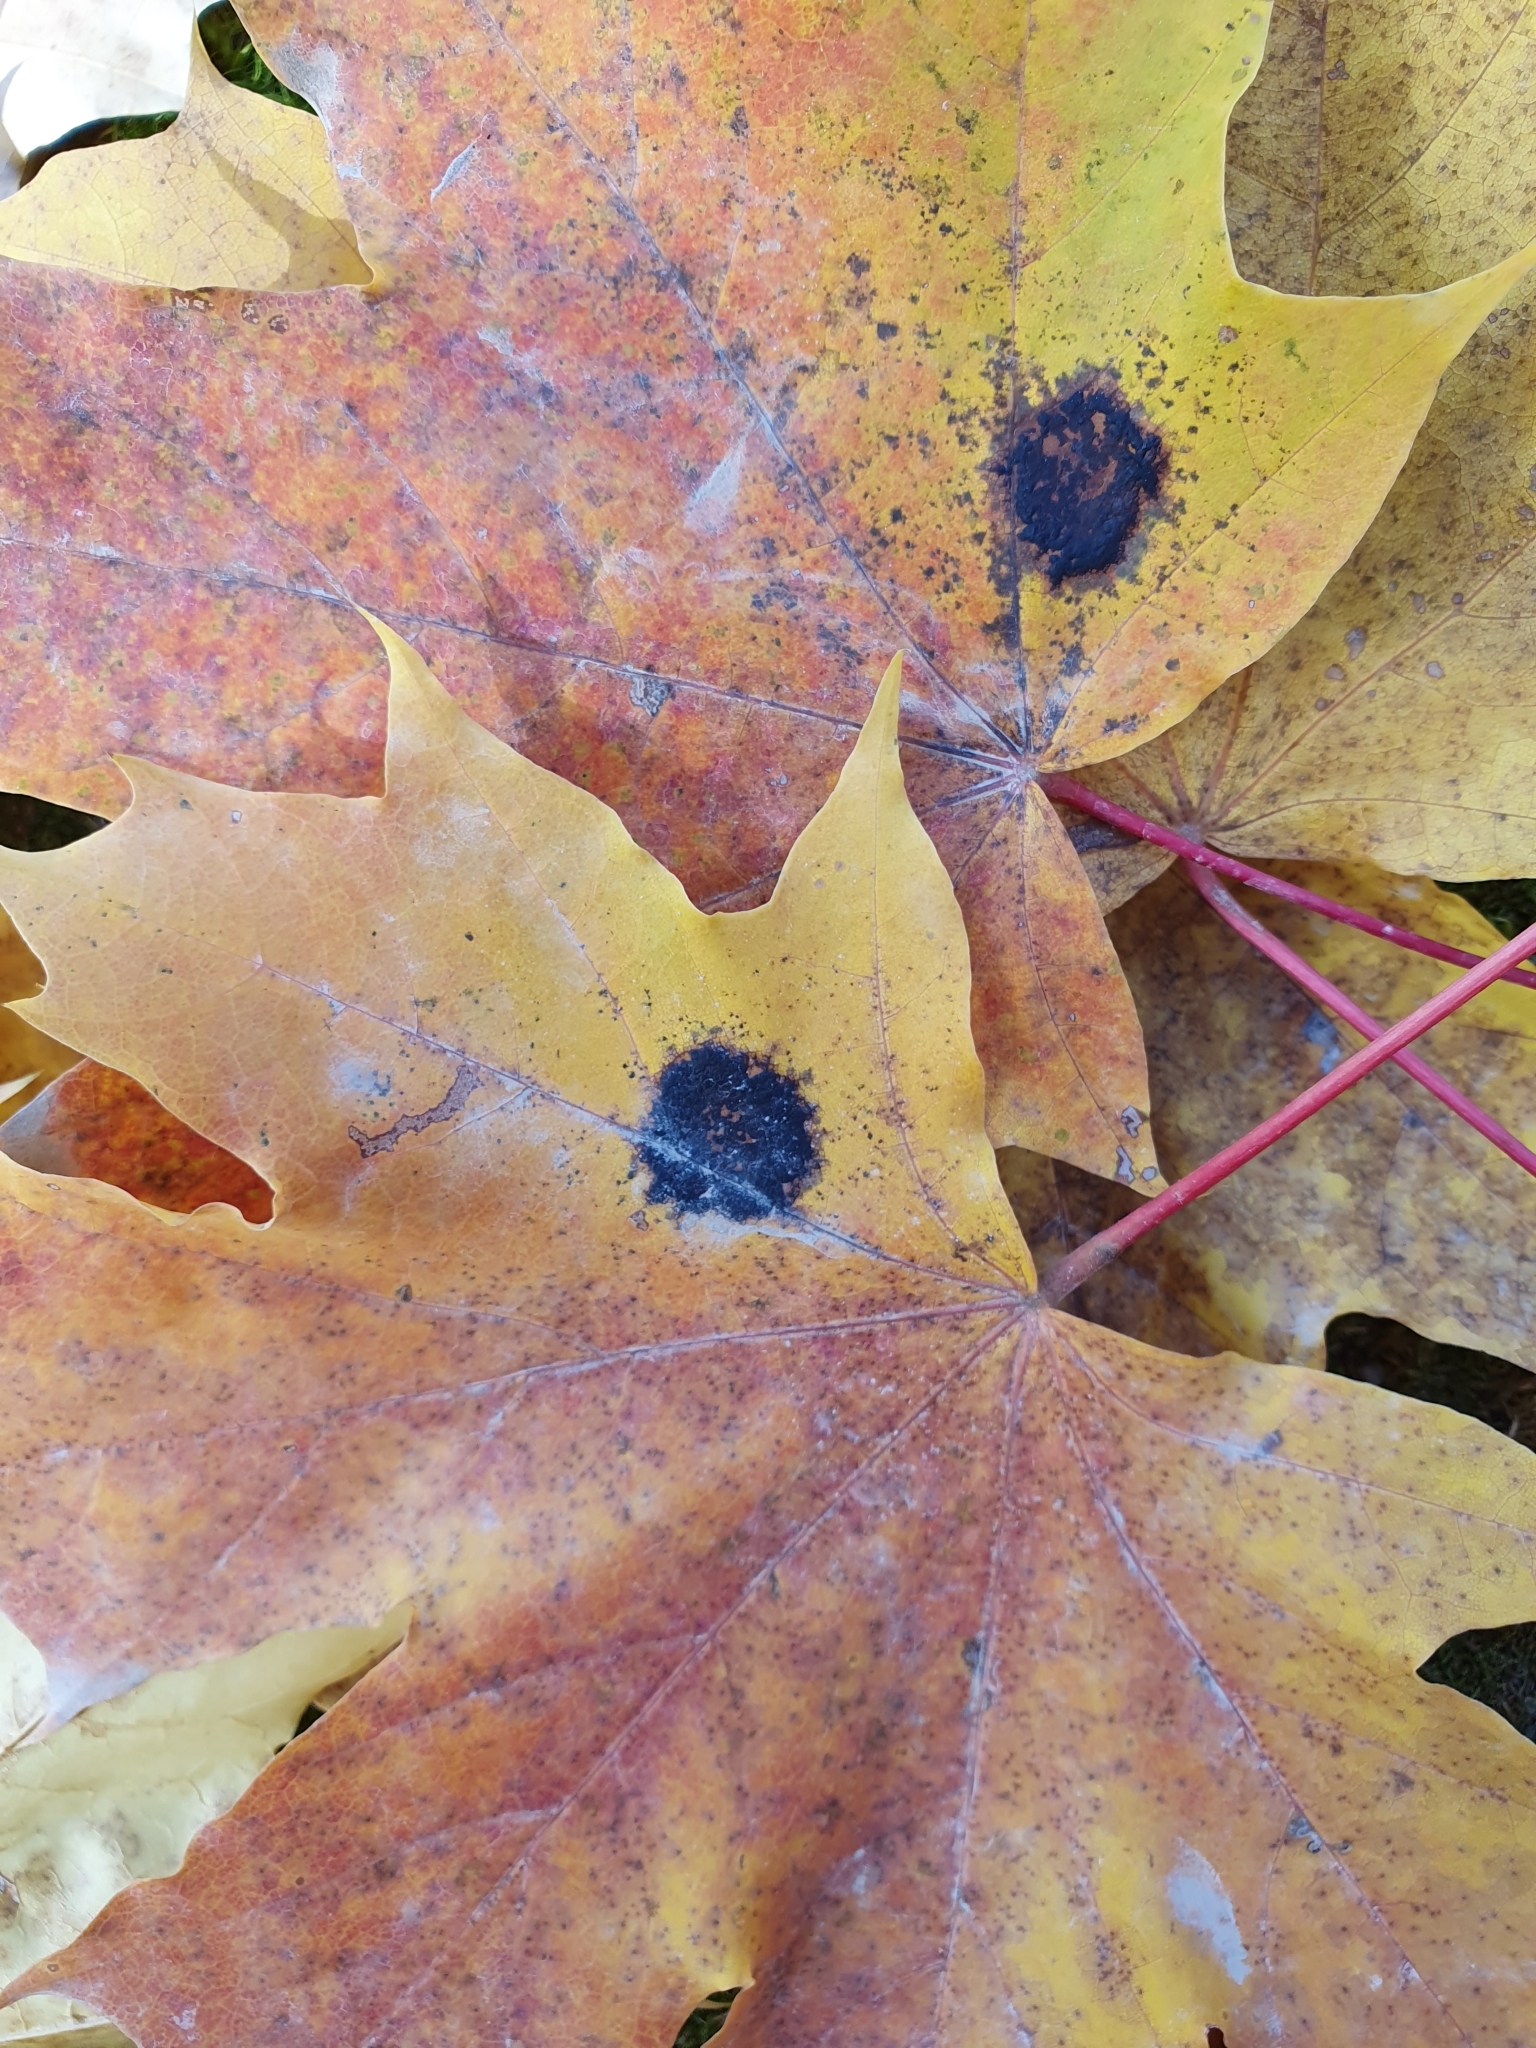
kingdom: Fungi
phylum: Ascomycota
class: Leotiomycetes
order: Rhytismatales
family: Rhytismataceae
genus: Rhytisma
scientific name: Rhytisma acerinum
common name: European tar spot
